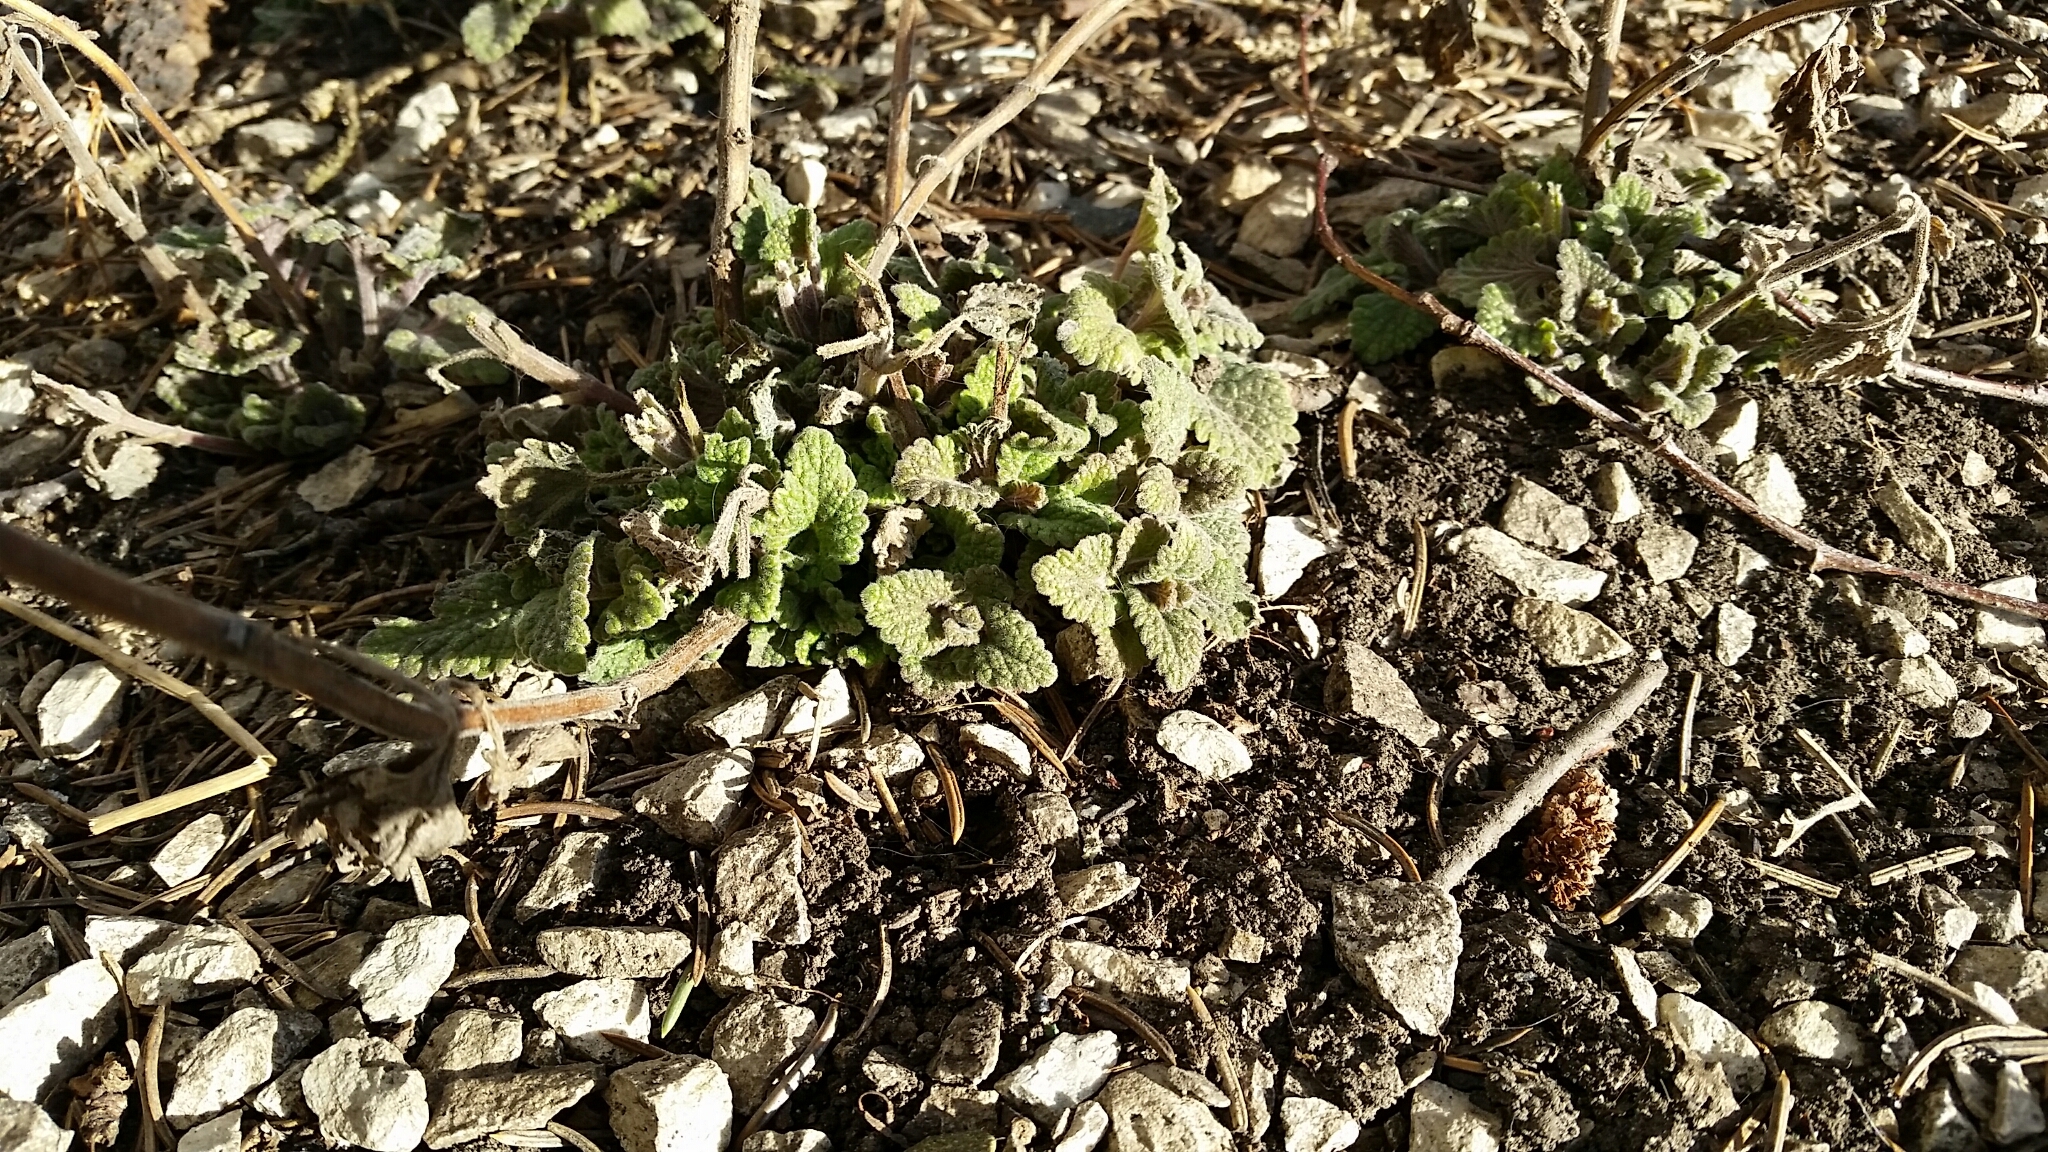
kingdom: Plantae
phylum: Tracheophyta
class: Magnoliopsida
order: Lamiales
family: Lamiaceae
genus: Nepeta
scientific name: Nepeta cataria
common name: Catnip
